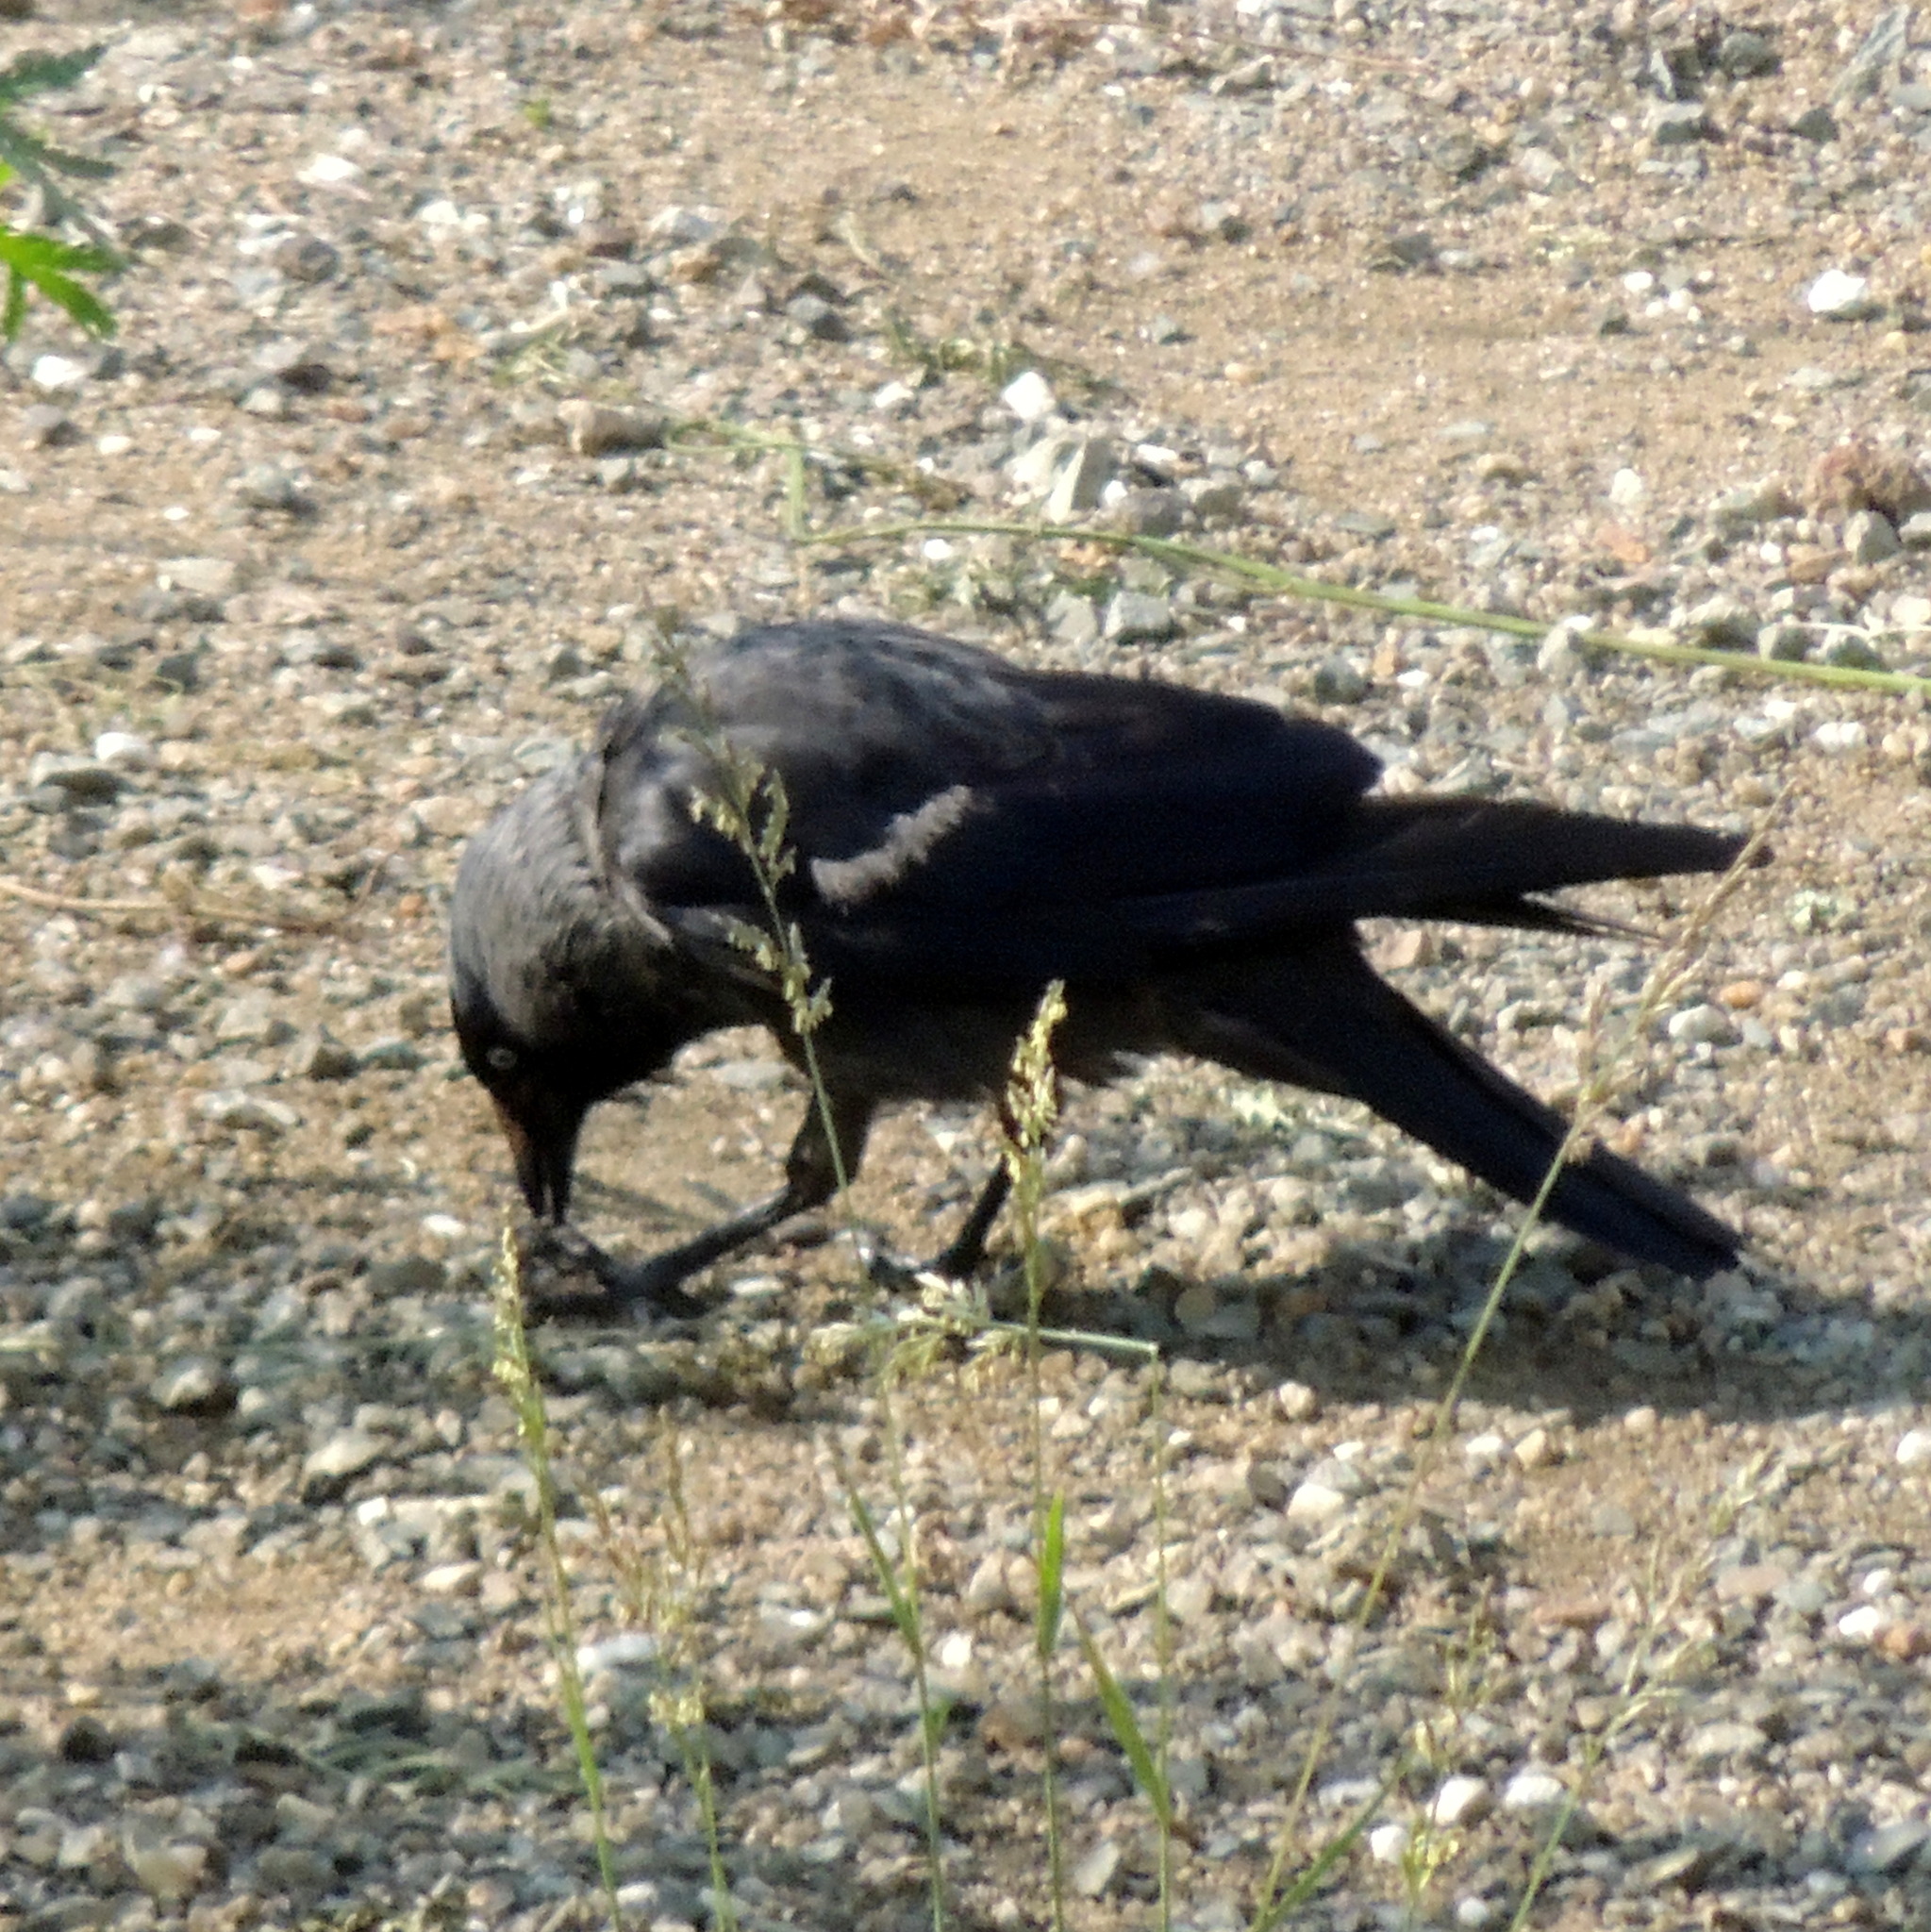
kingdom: Animalia
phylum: Chordata
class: Aves
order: Passeriformes
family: Corvidae
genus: Coloeus
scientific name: Coloeus monedula
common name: Western jackdaw
